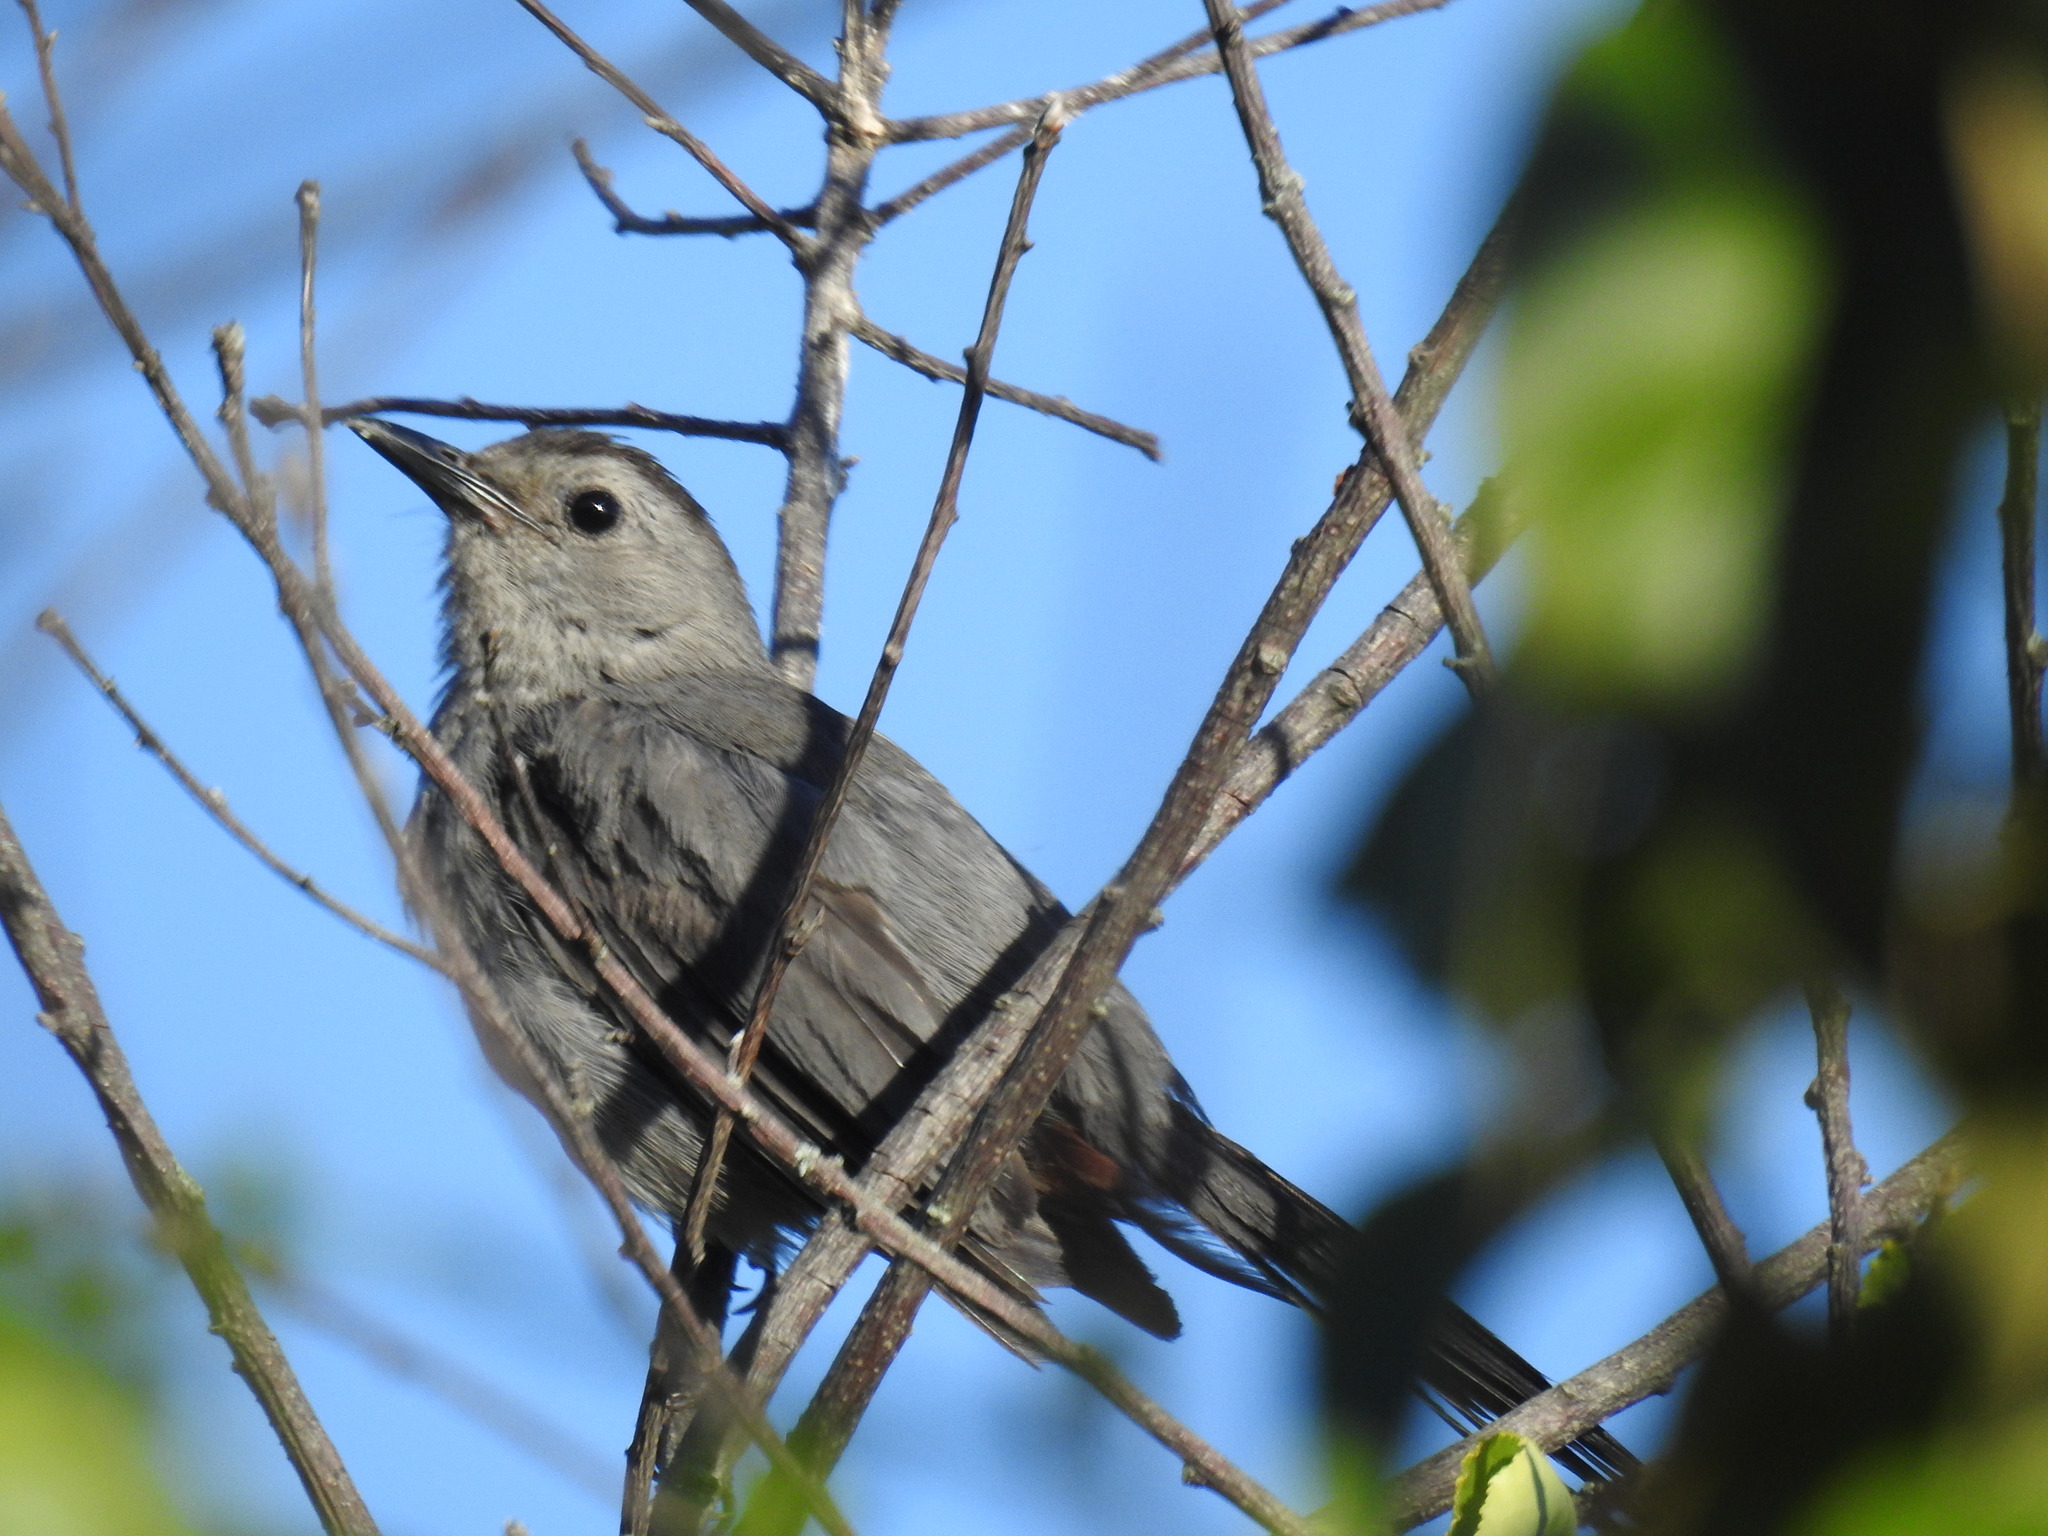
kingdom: Animalia
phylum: Chordata
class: Aves
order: Passeriformes
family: Mimidae
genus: Dumetella
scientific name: Dumetella carolinensis
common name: Gray catbird
